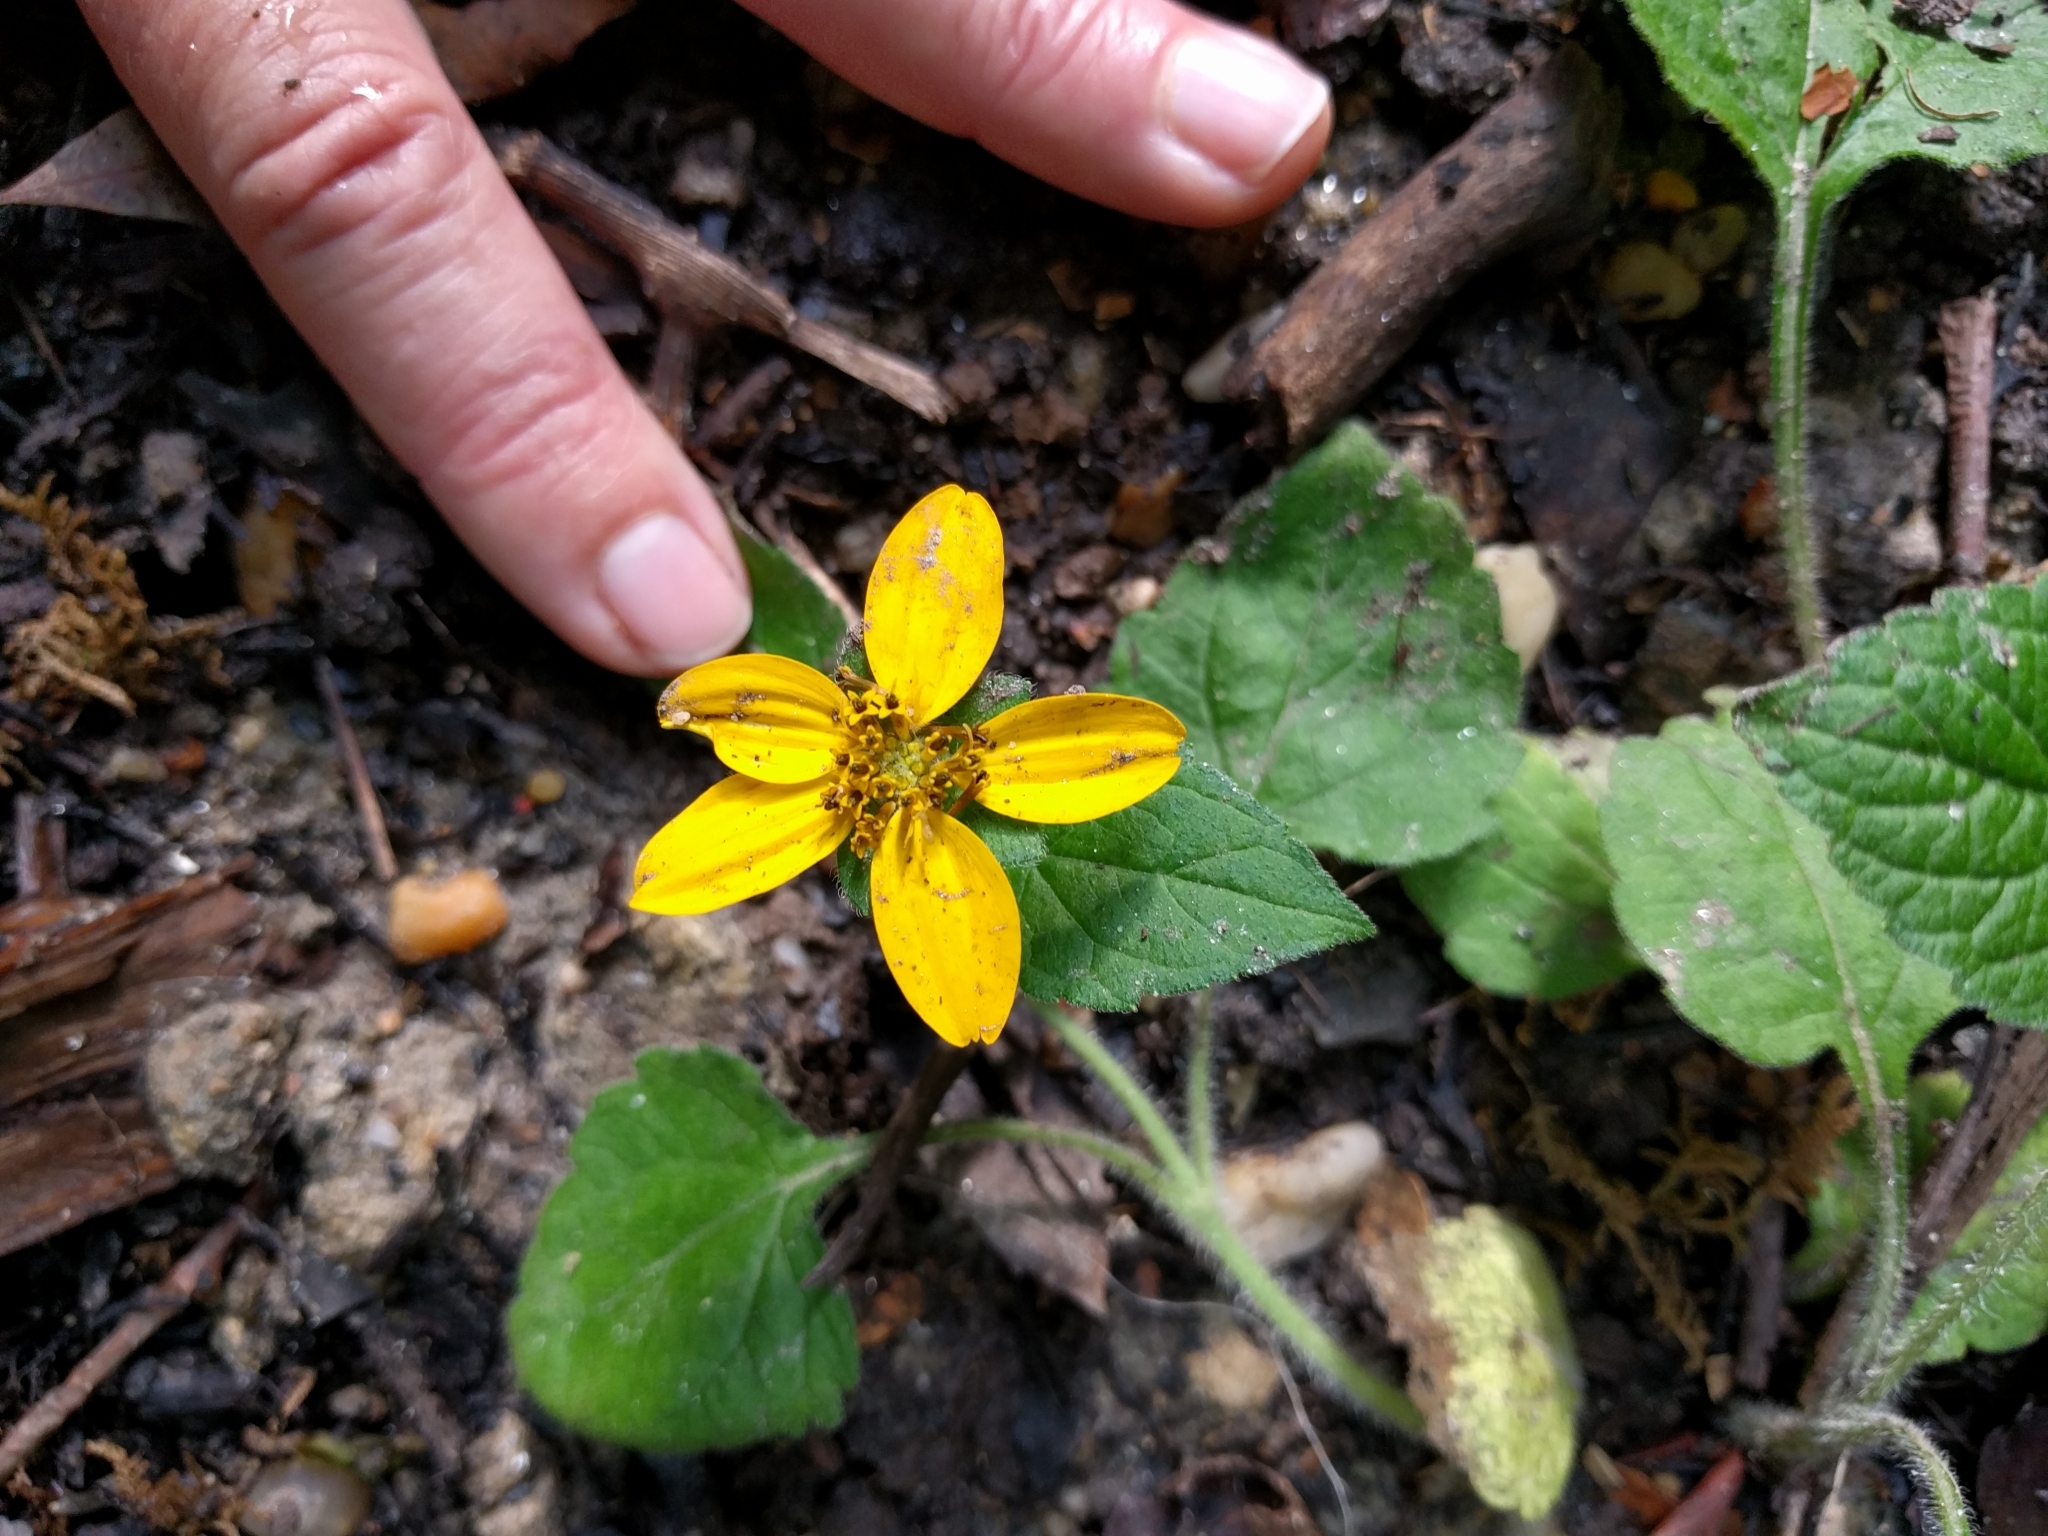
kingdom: Plantae
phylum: Tracheophyta
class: Magnoliopsida
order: Asterales
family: Asteraceae
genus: Chrysogonum
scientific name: Chrysogonum virginianum
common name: Golden-knee
